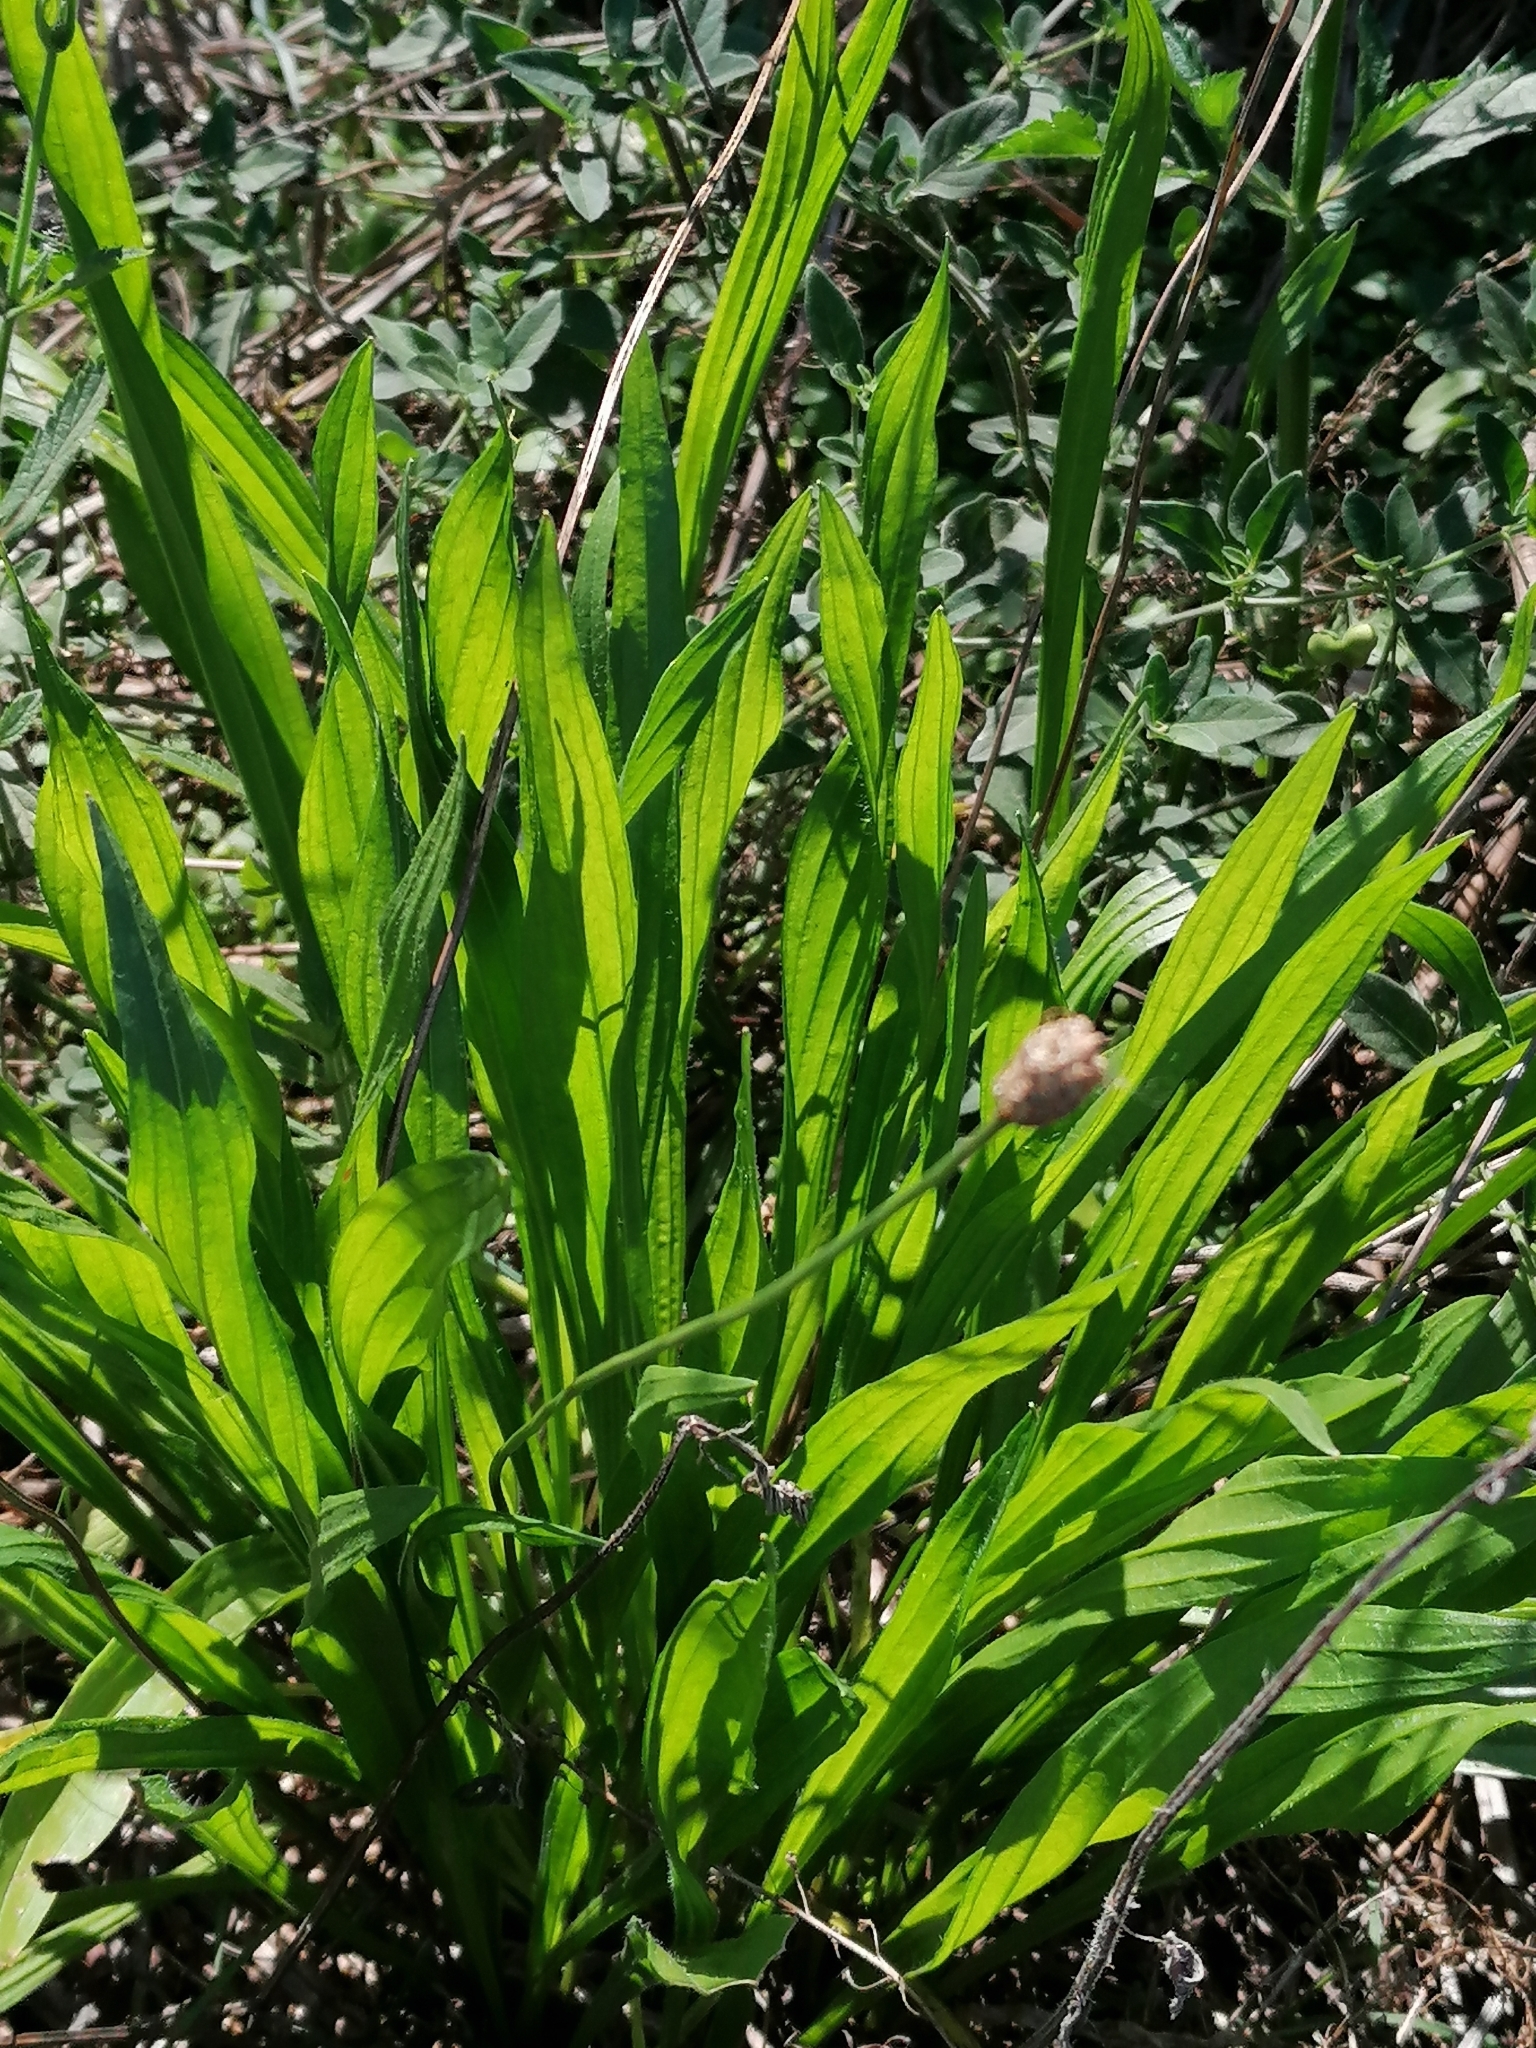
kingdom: Plantae
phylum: Tracheophyta
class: Magnoliopsida
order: Lamiales
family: Plantaginaceae
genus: Plantago
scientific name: Plantago lanceolata
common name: Ribwort plantain
